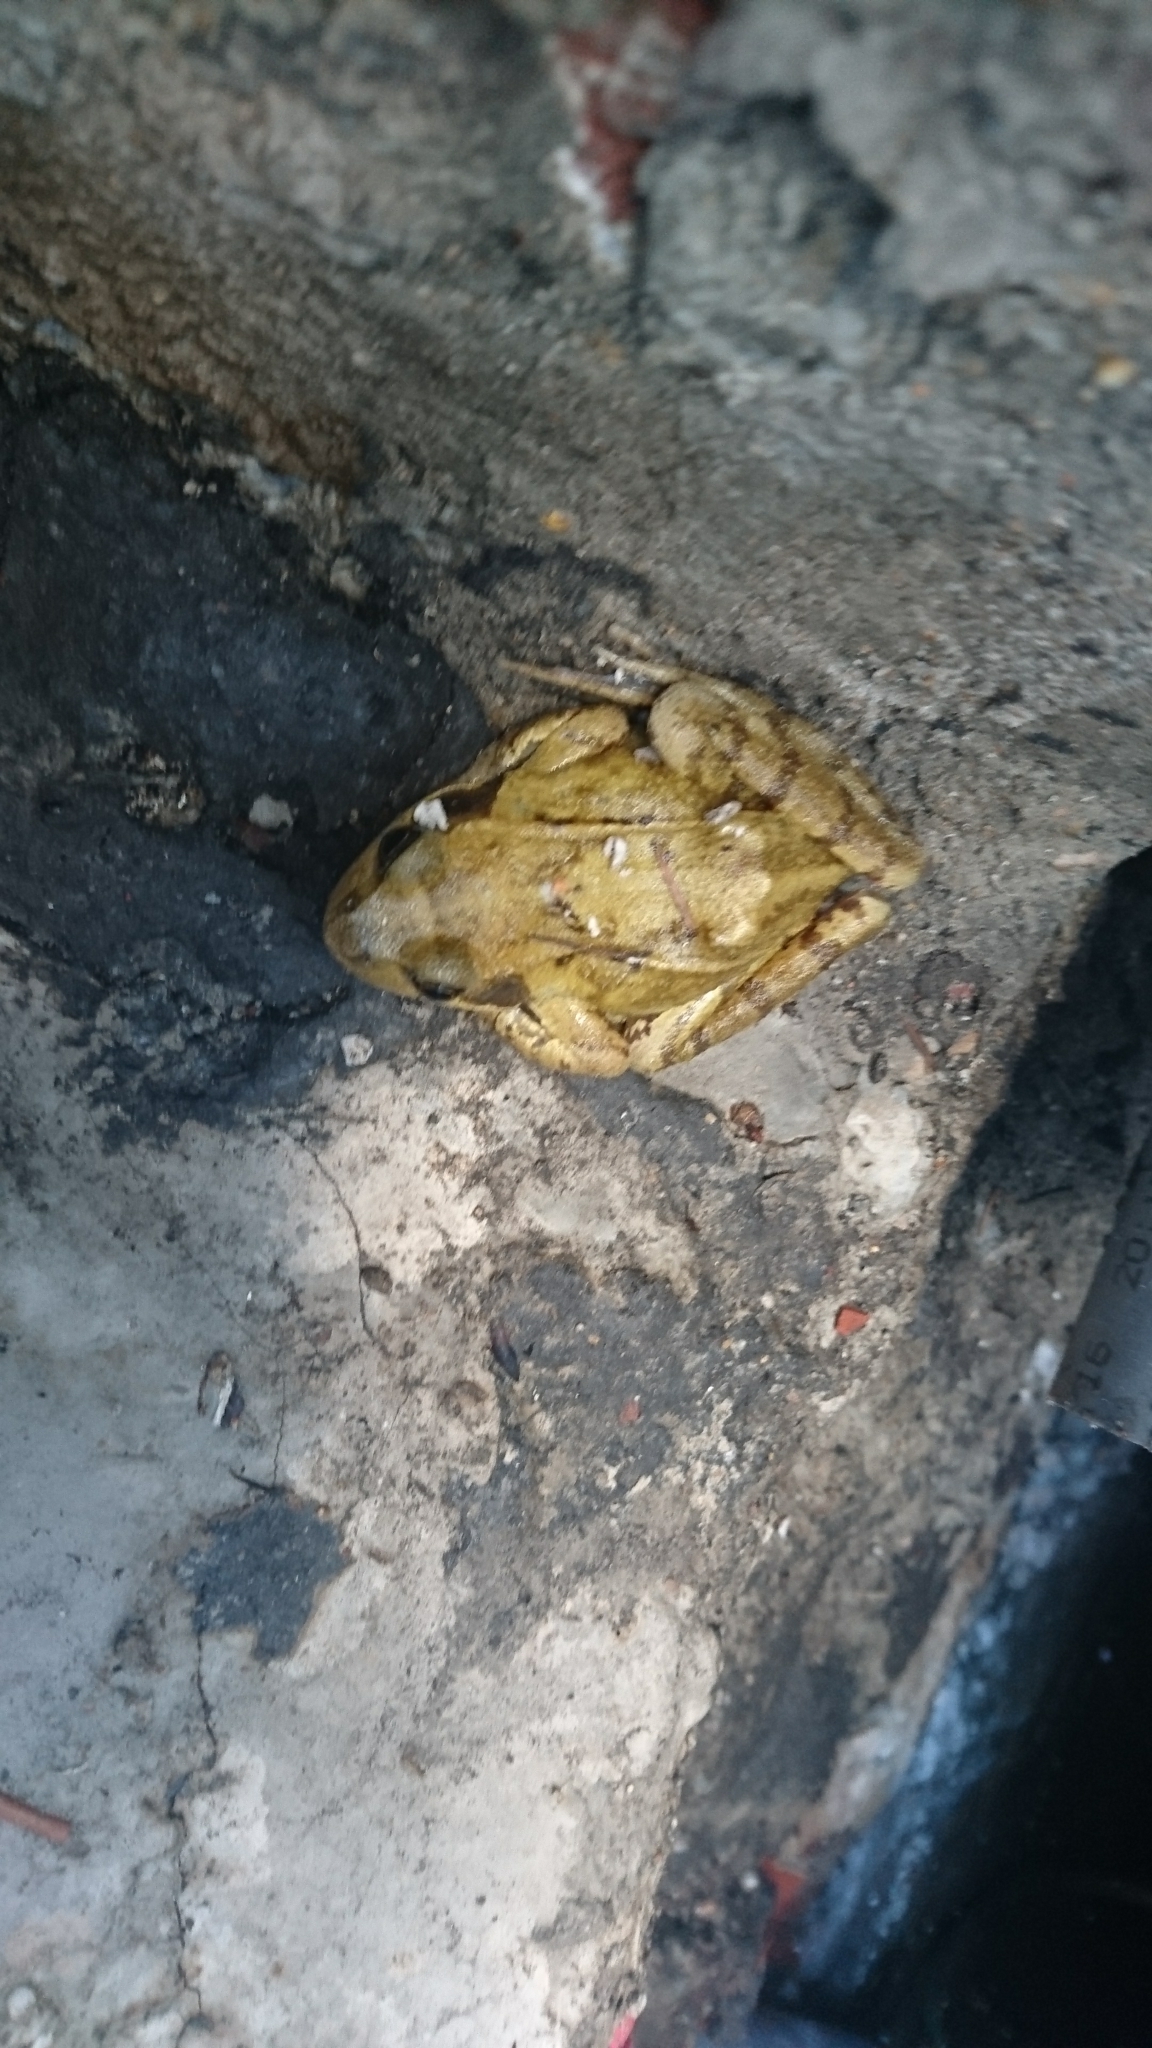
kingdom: Animalia
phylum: Chordata
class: Amphibia
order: Anura
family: Ranidae
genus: Rana
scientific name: Rana temporaria
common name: Common frog
